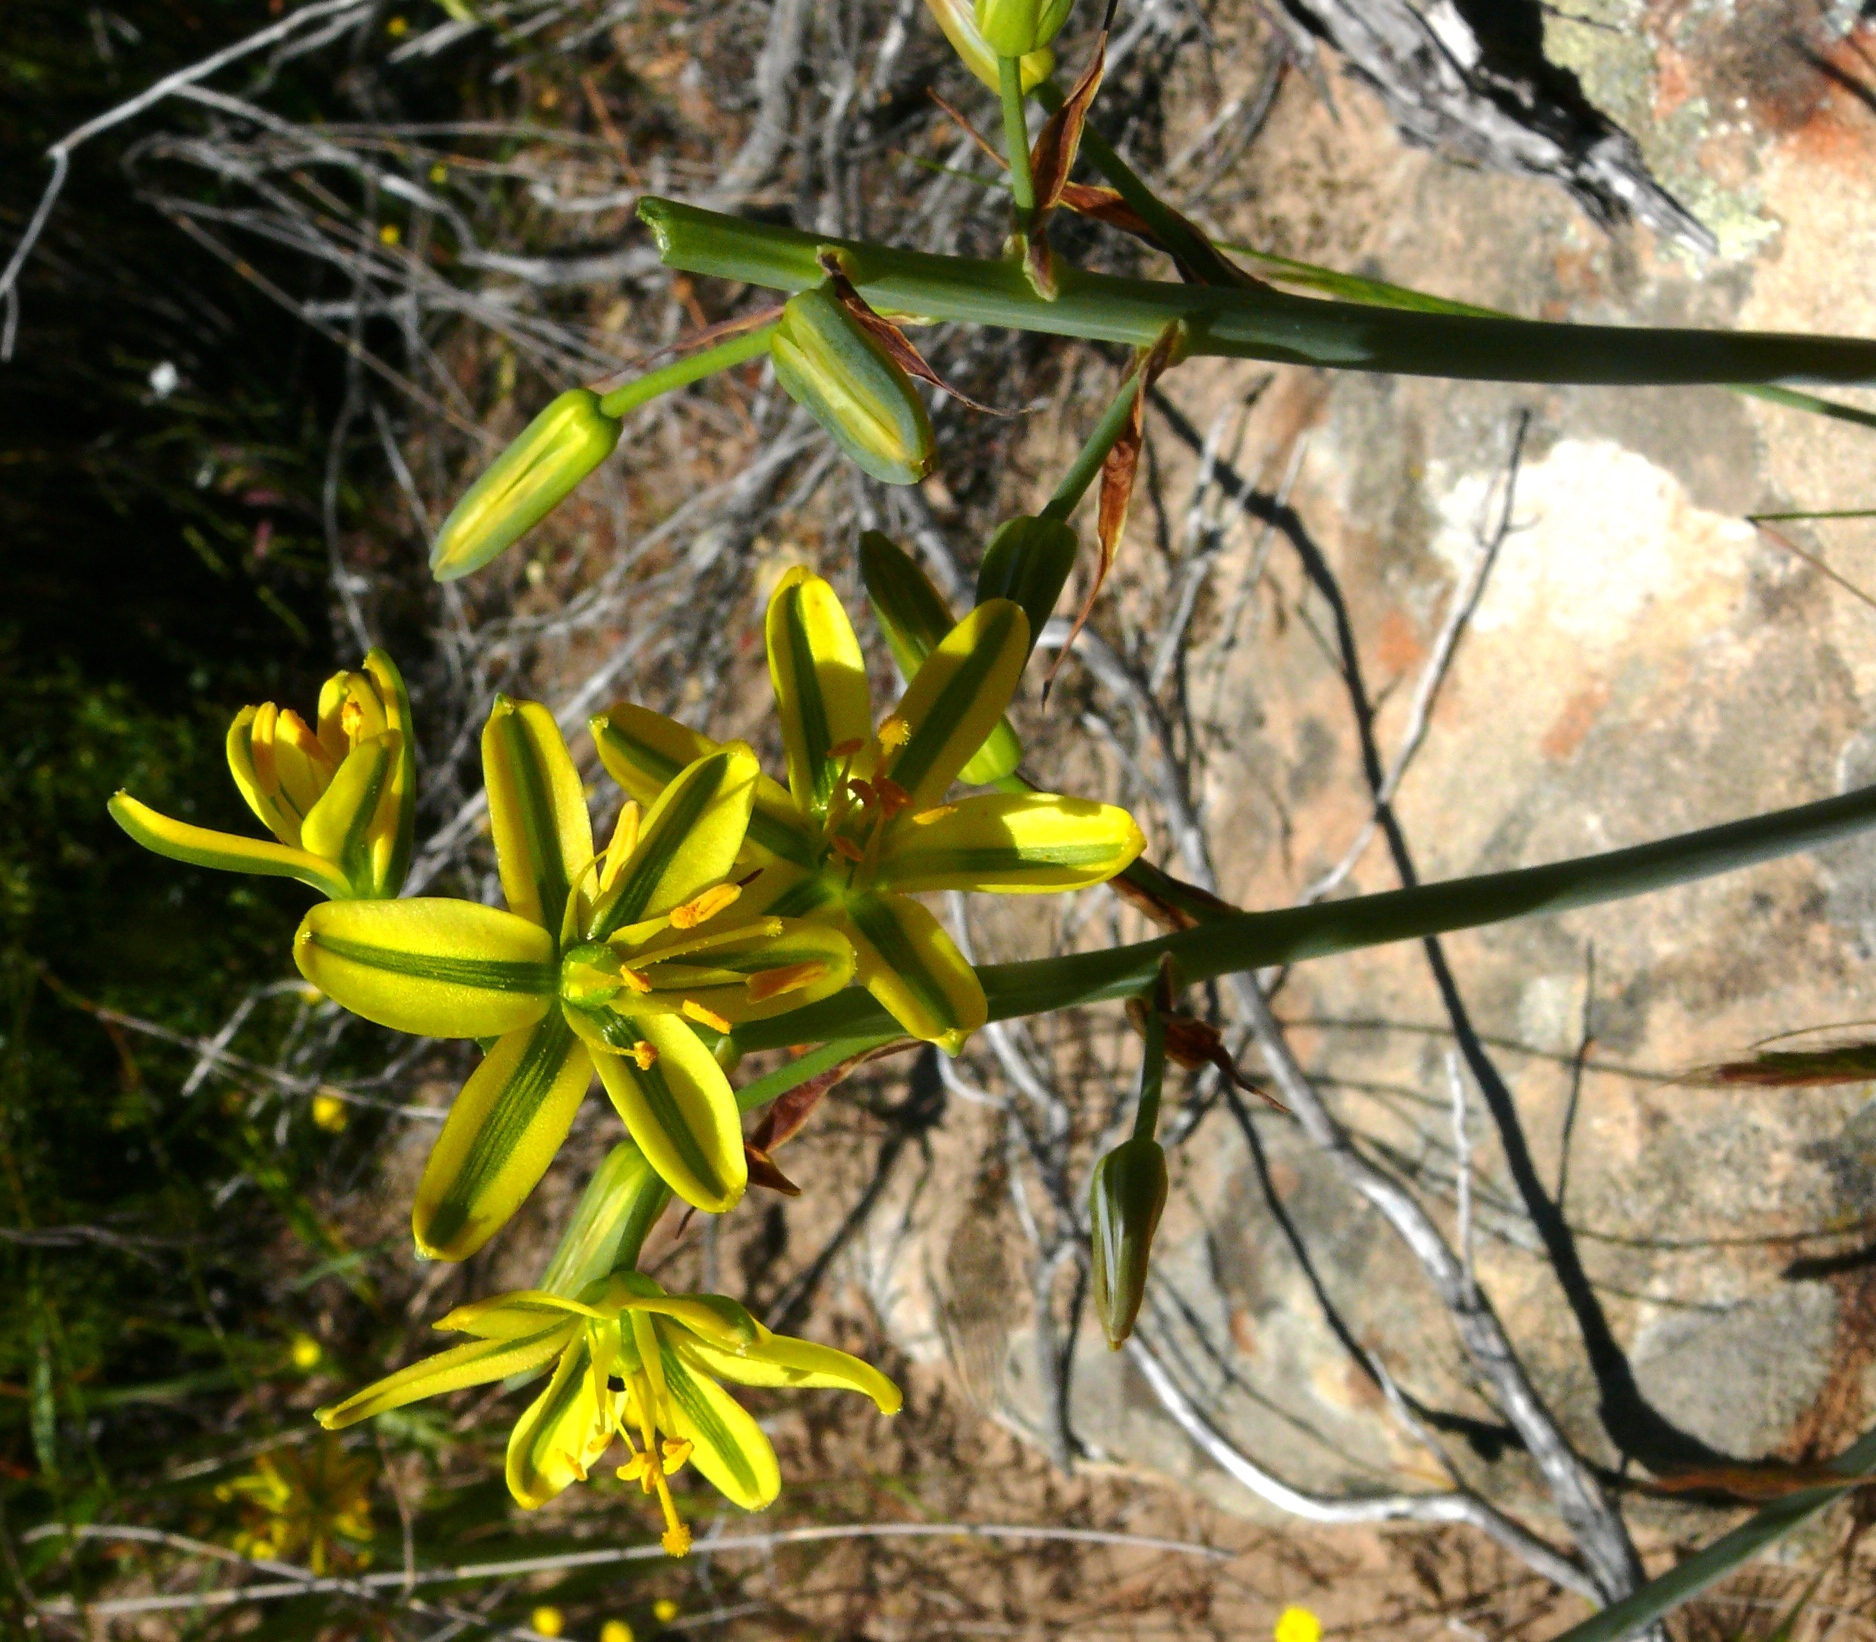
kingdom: Plantae
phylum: Tracheophyta
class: Liliopsida
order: Asparagales
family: Asparagaceae
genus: Albuca
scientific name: Albuca suaveolens
